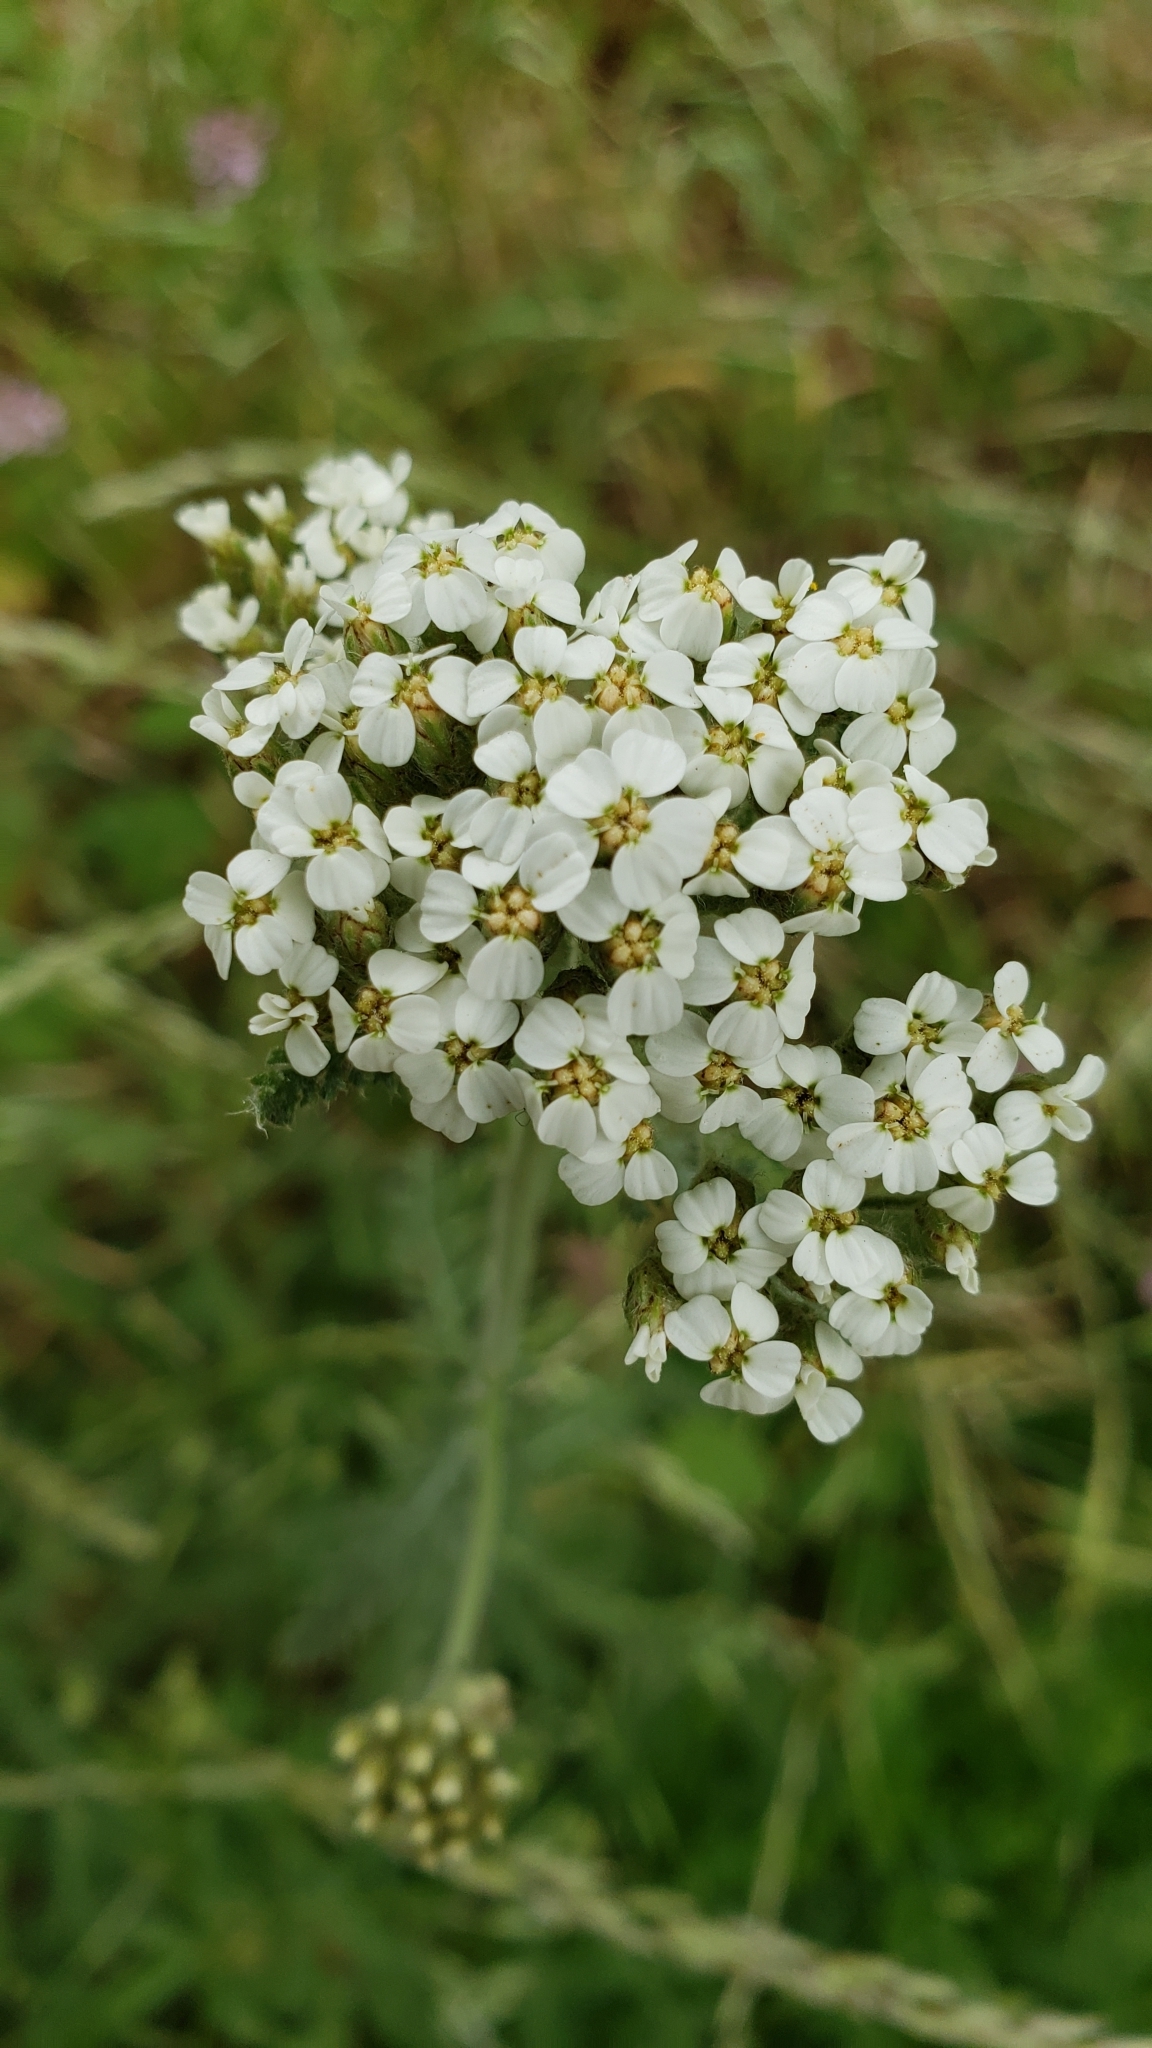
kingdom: Plantae
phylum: Tracheophyta
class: Magnoliopsida
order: Asterales
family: Asteraceae
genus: Achillea
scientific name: Achillea millefolium
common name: Yarrow
